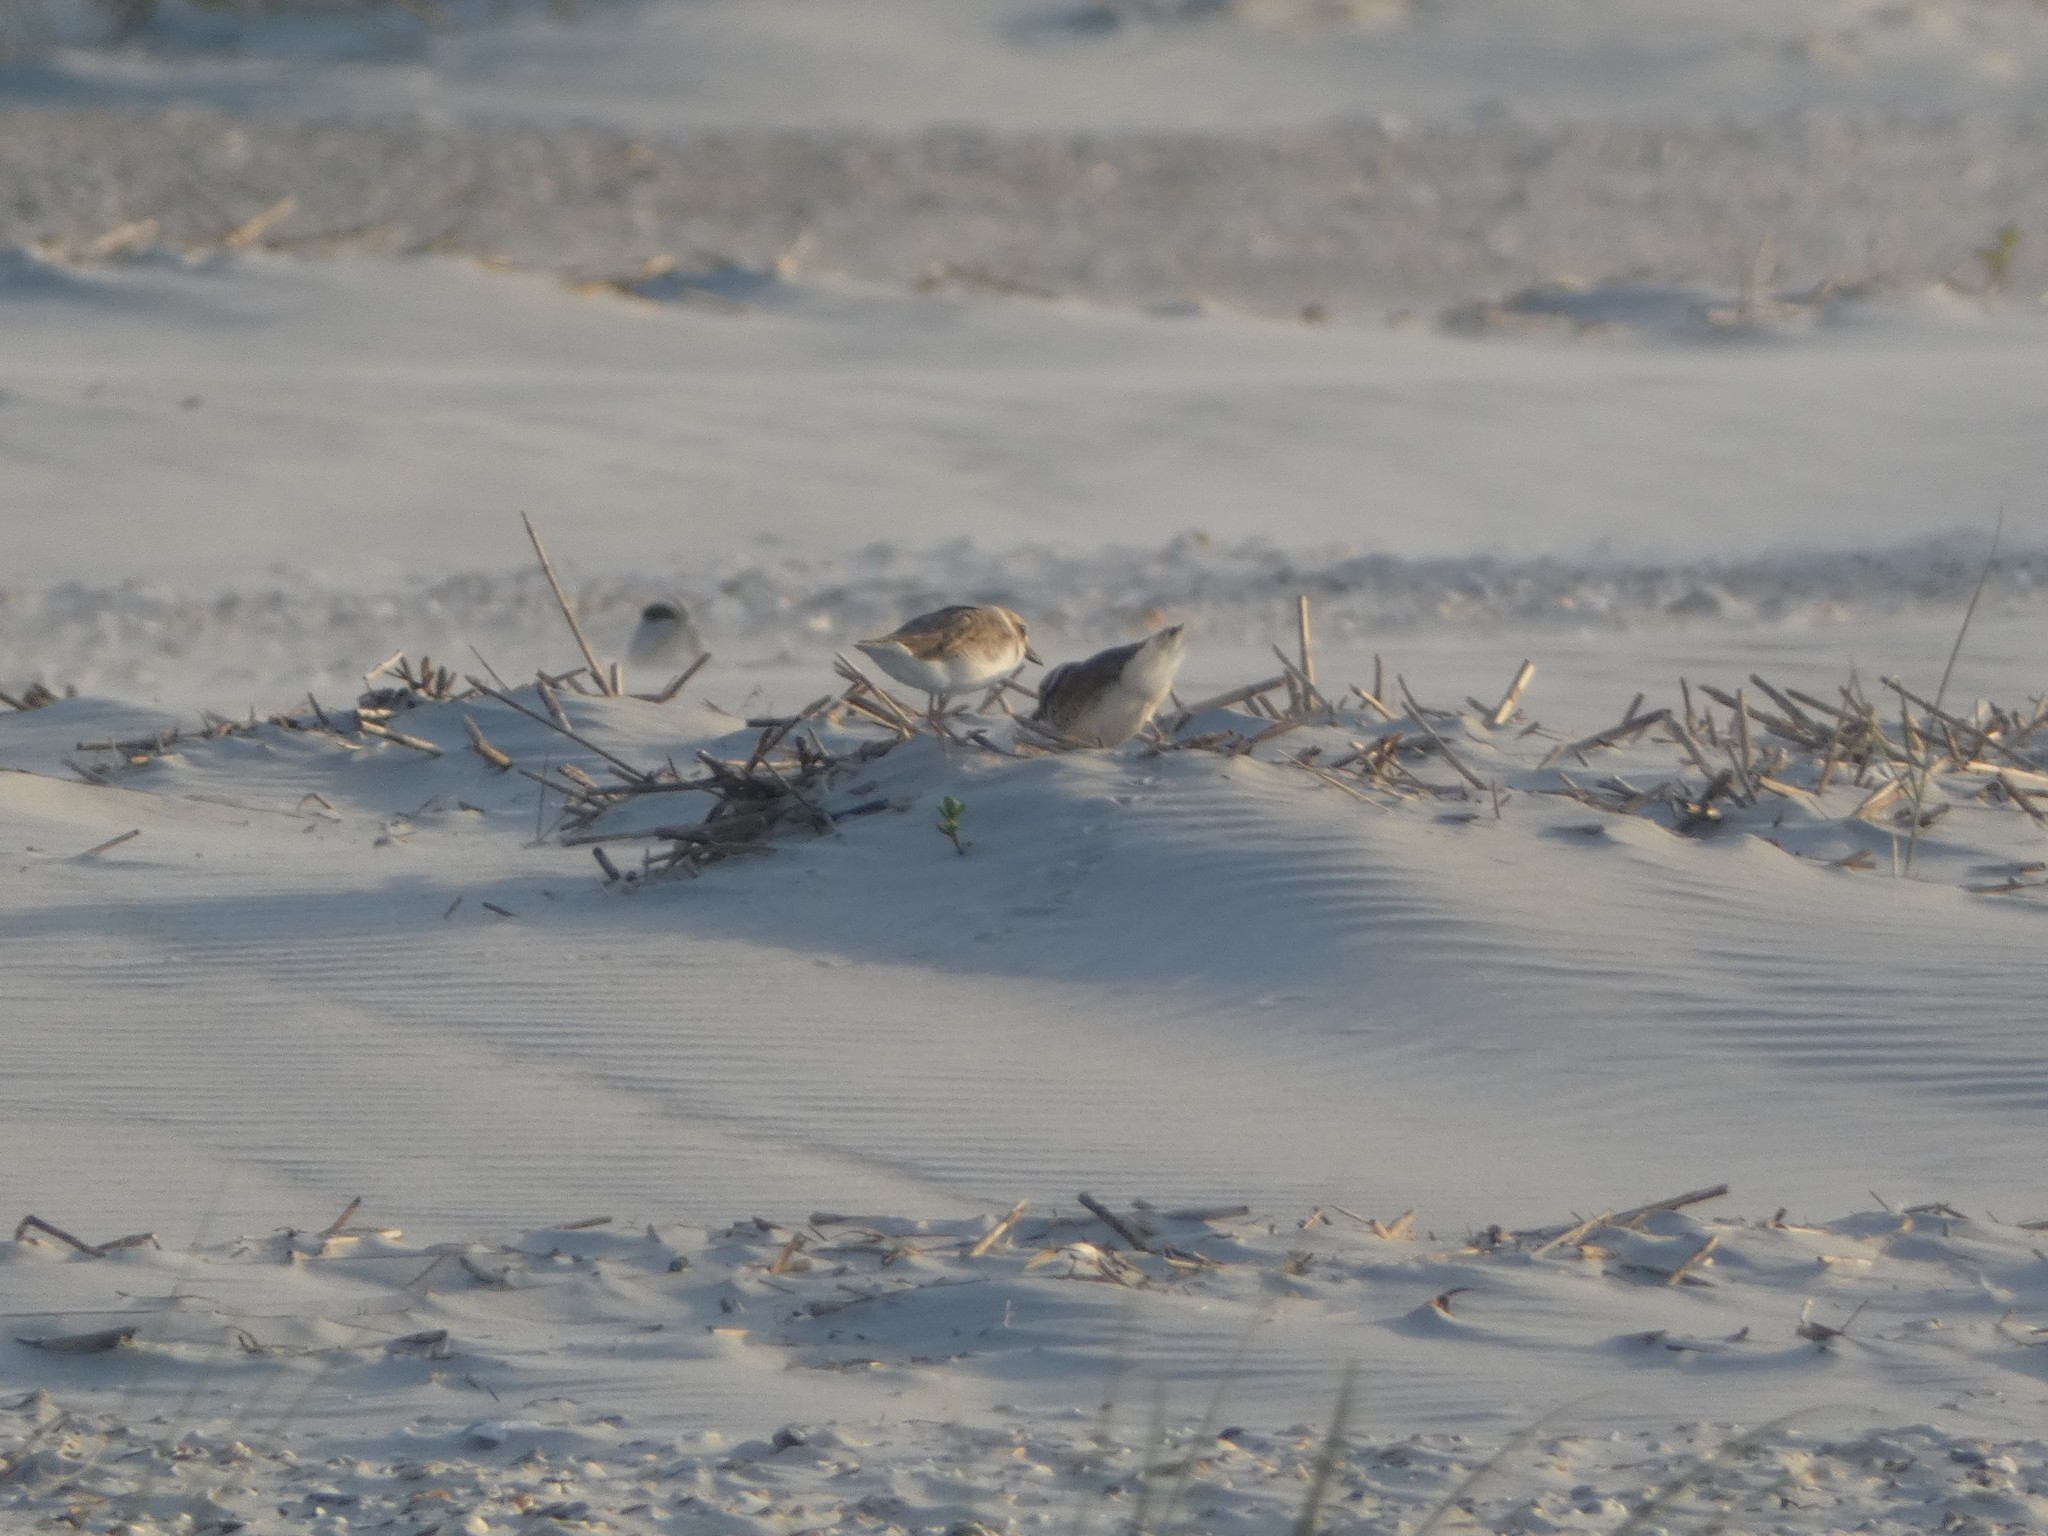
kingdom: Animalia
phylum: Chordata
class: Aves
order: Charadriiformes
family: Charadriidae
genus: Anarhynchus
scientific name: Anarhynchus
